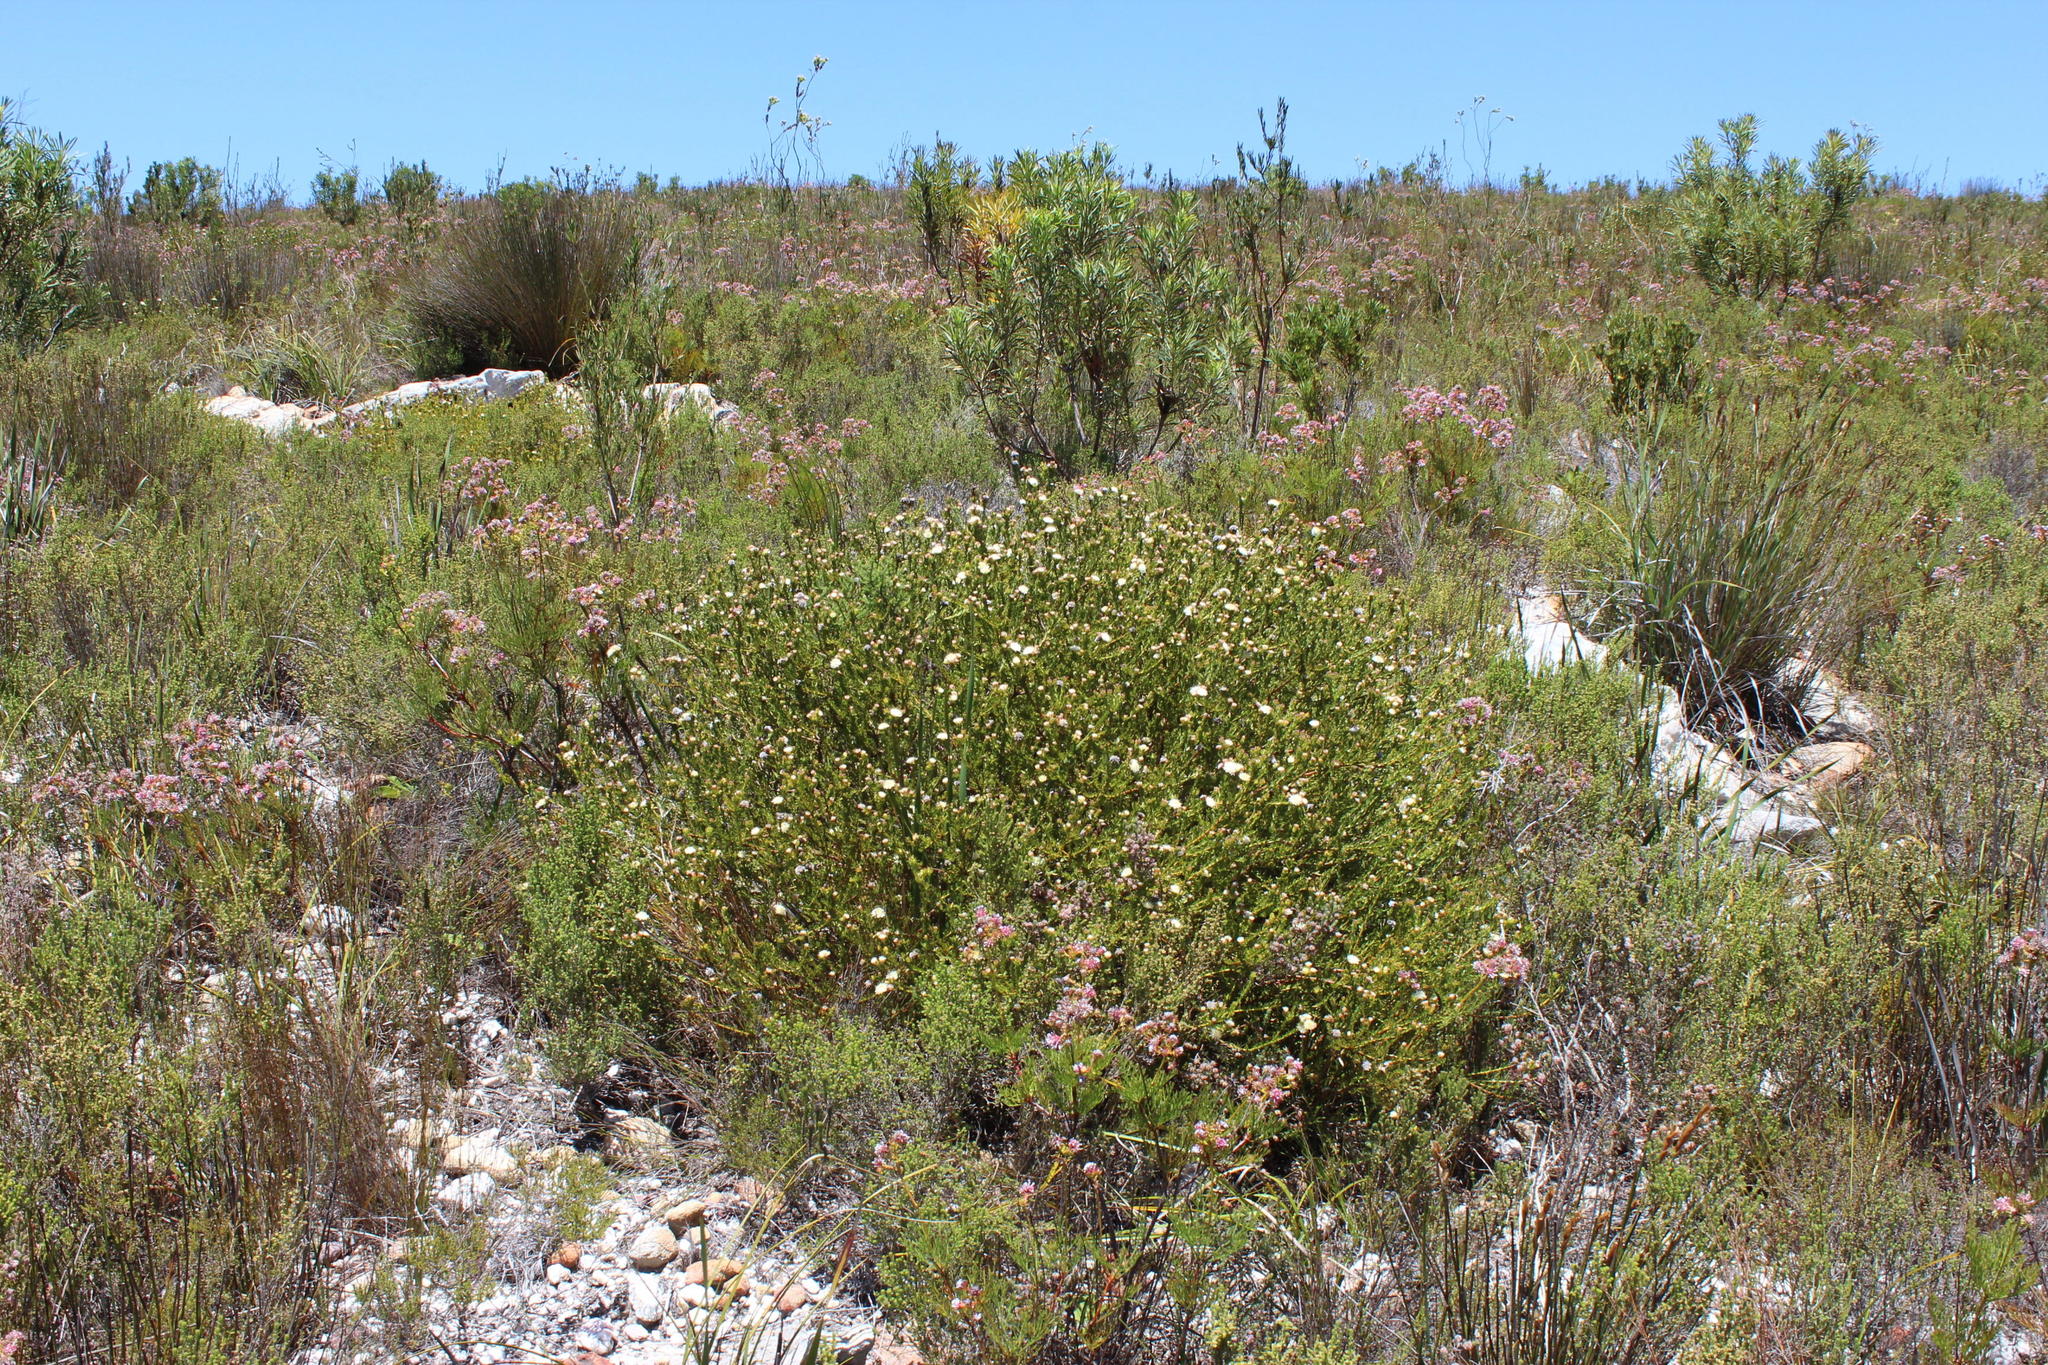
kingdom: Plantae
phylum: Tracheophyta
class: Magnoliopsida
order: Proteales
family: Proteaceae
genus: Diastella
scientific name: Diastella thymelaeoides
